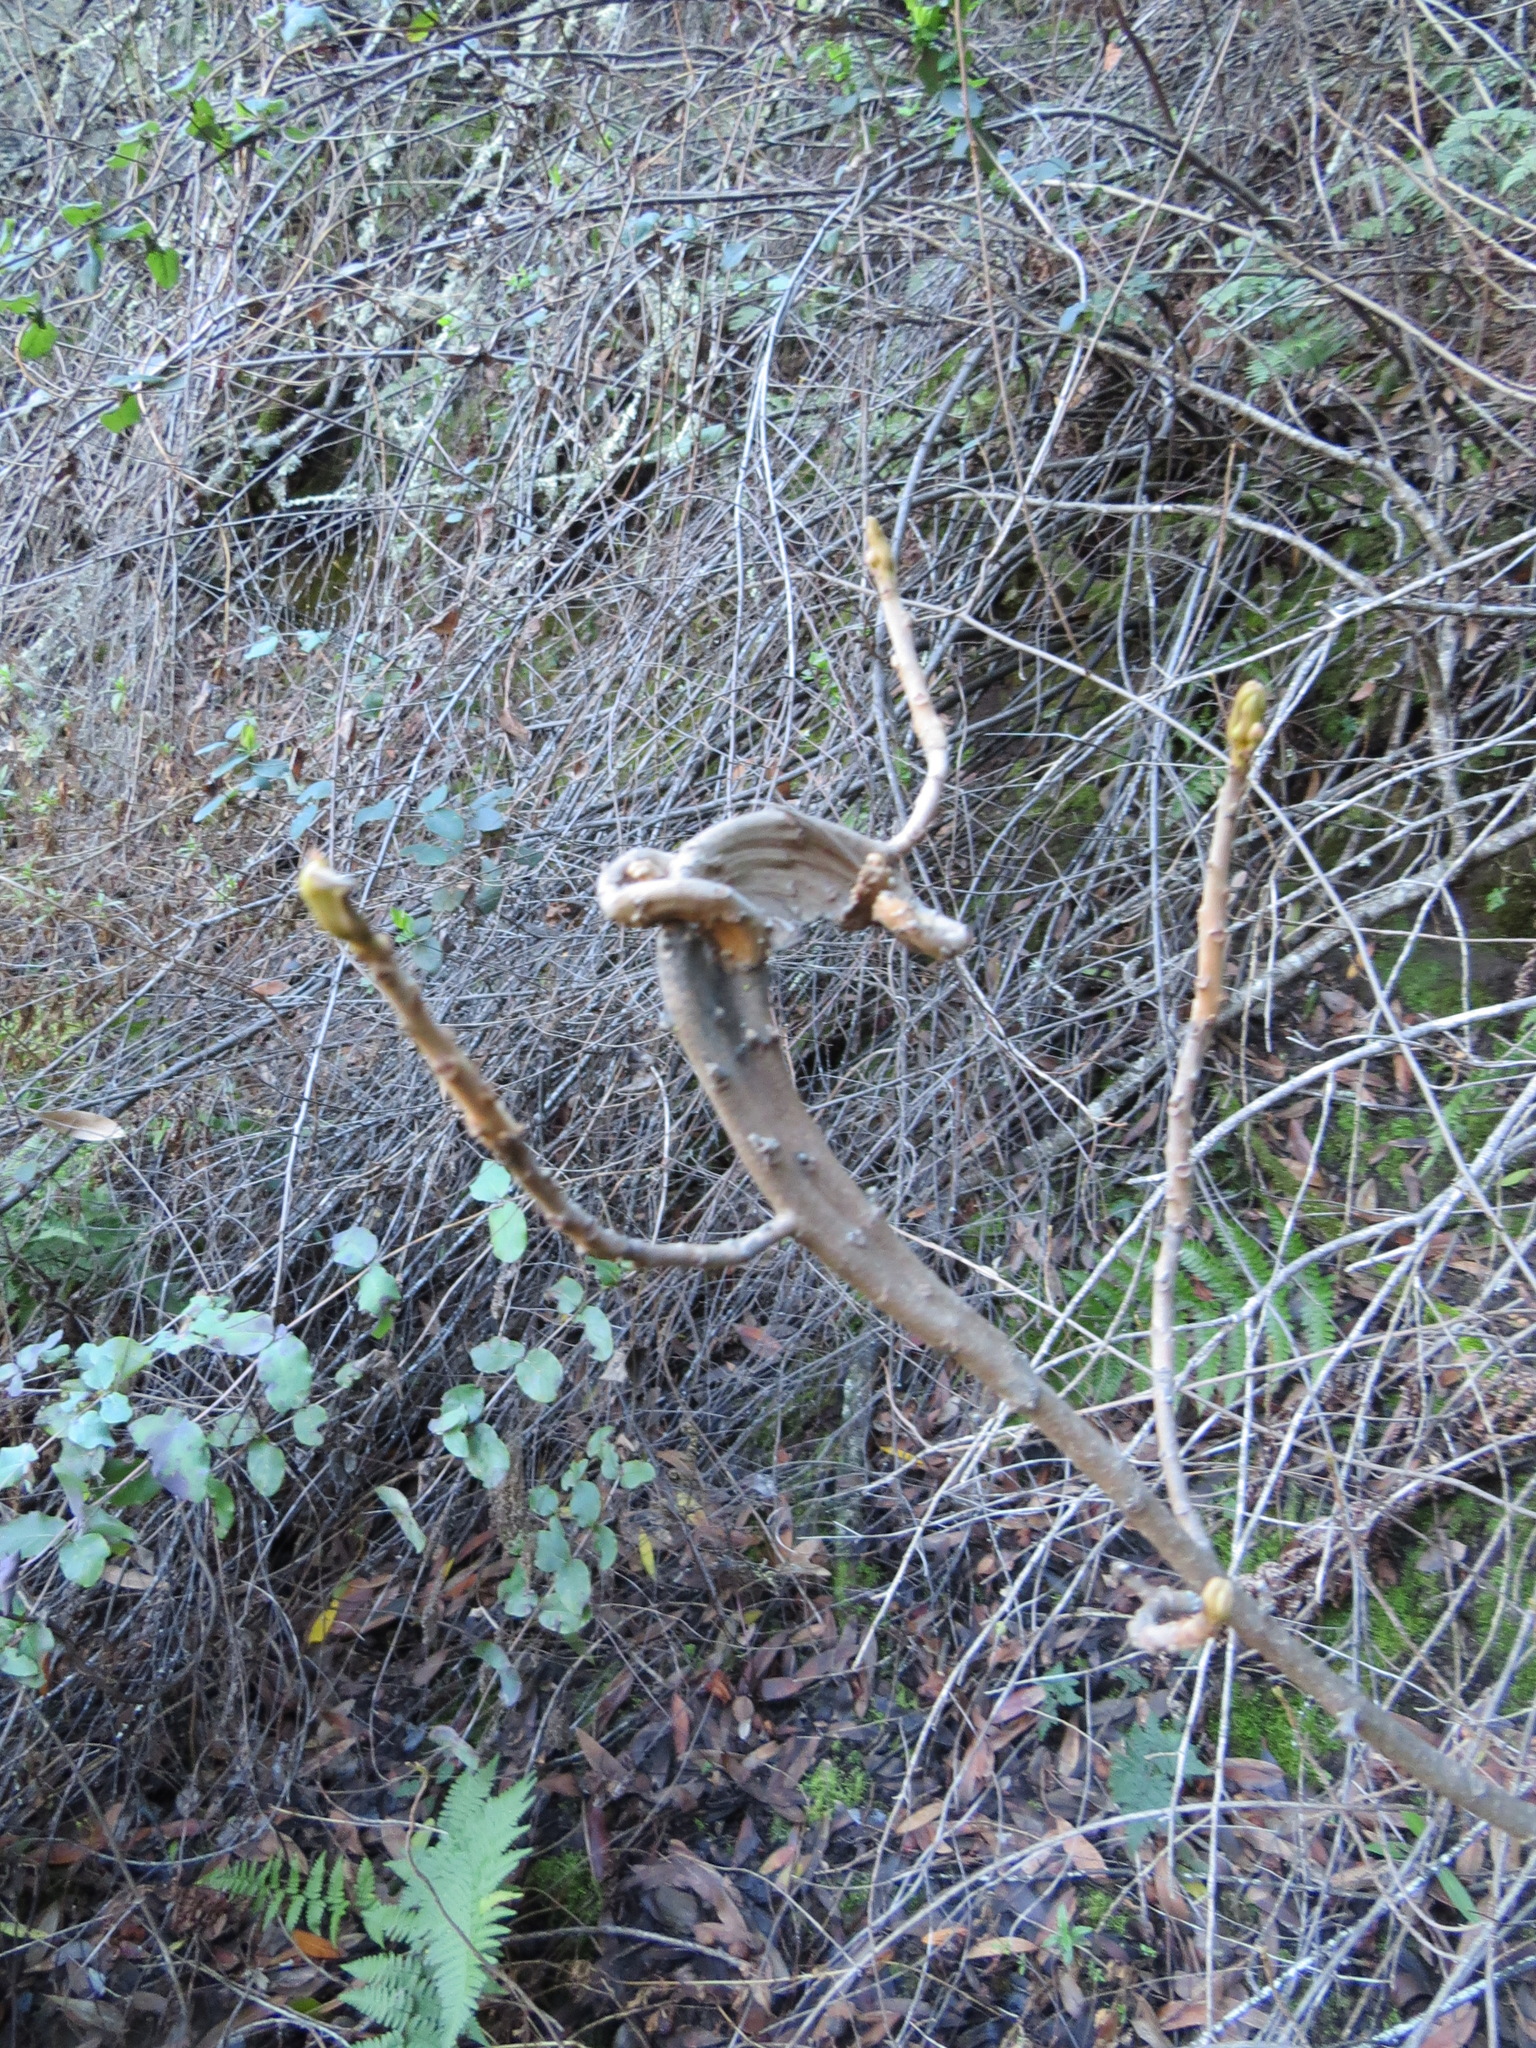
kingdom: Plantae
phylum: Tracheophyta
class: Magnoliopsida
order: Sapindales
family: Anacardiaceae
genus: Toxicodendron
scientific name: Toxicodendron diversilobum
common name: Pacific poison-oak
